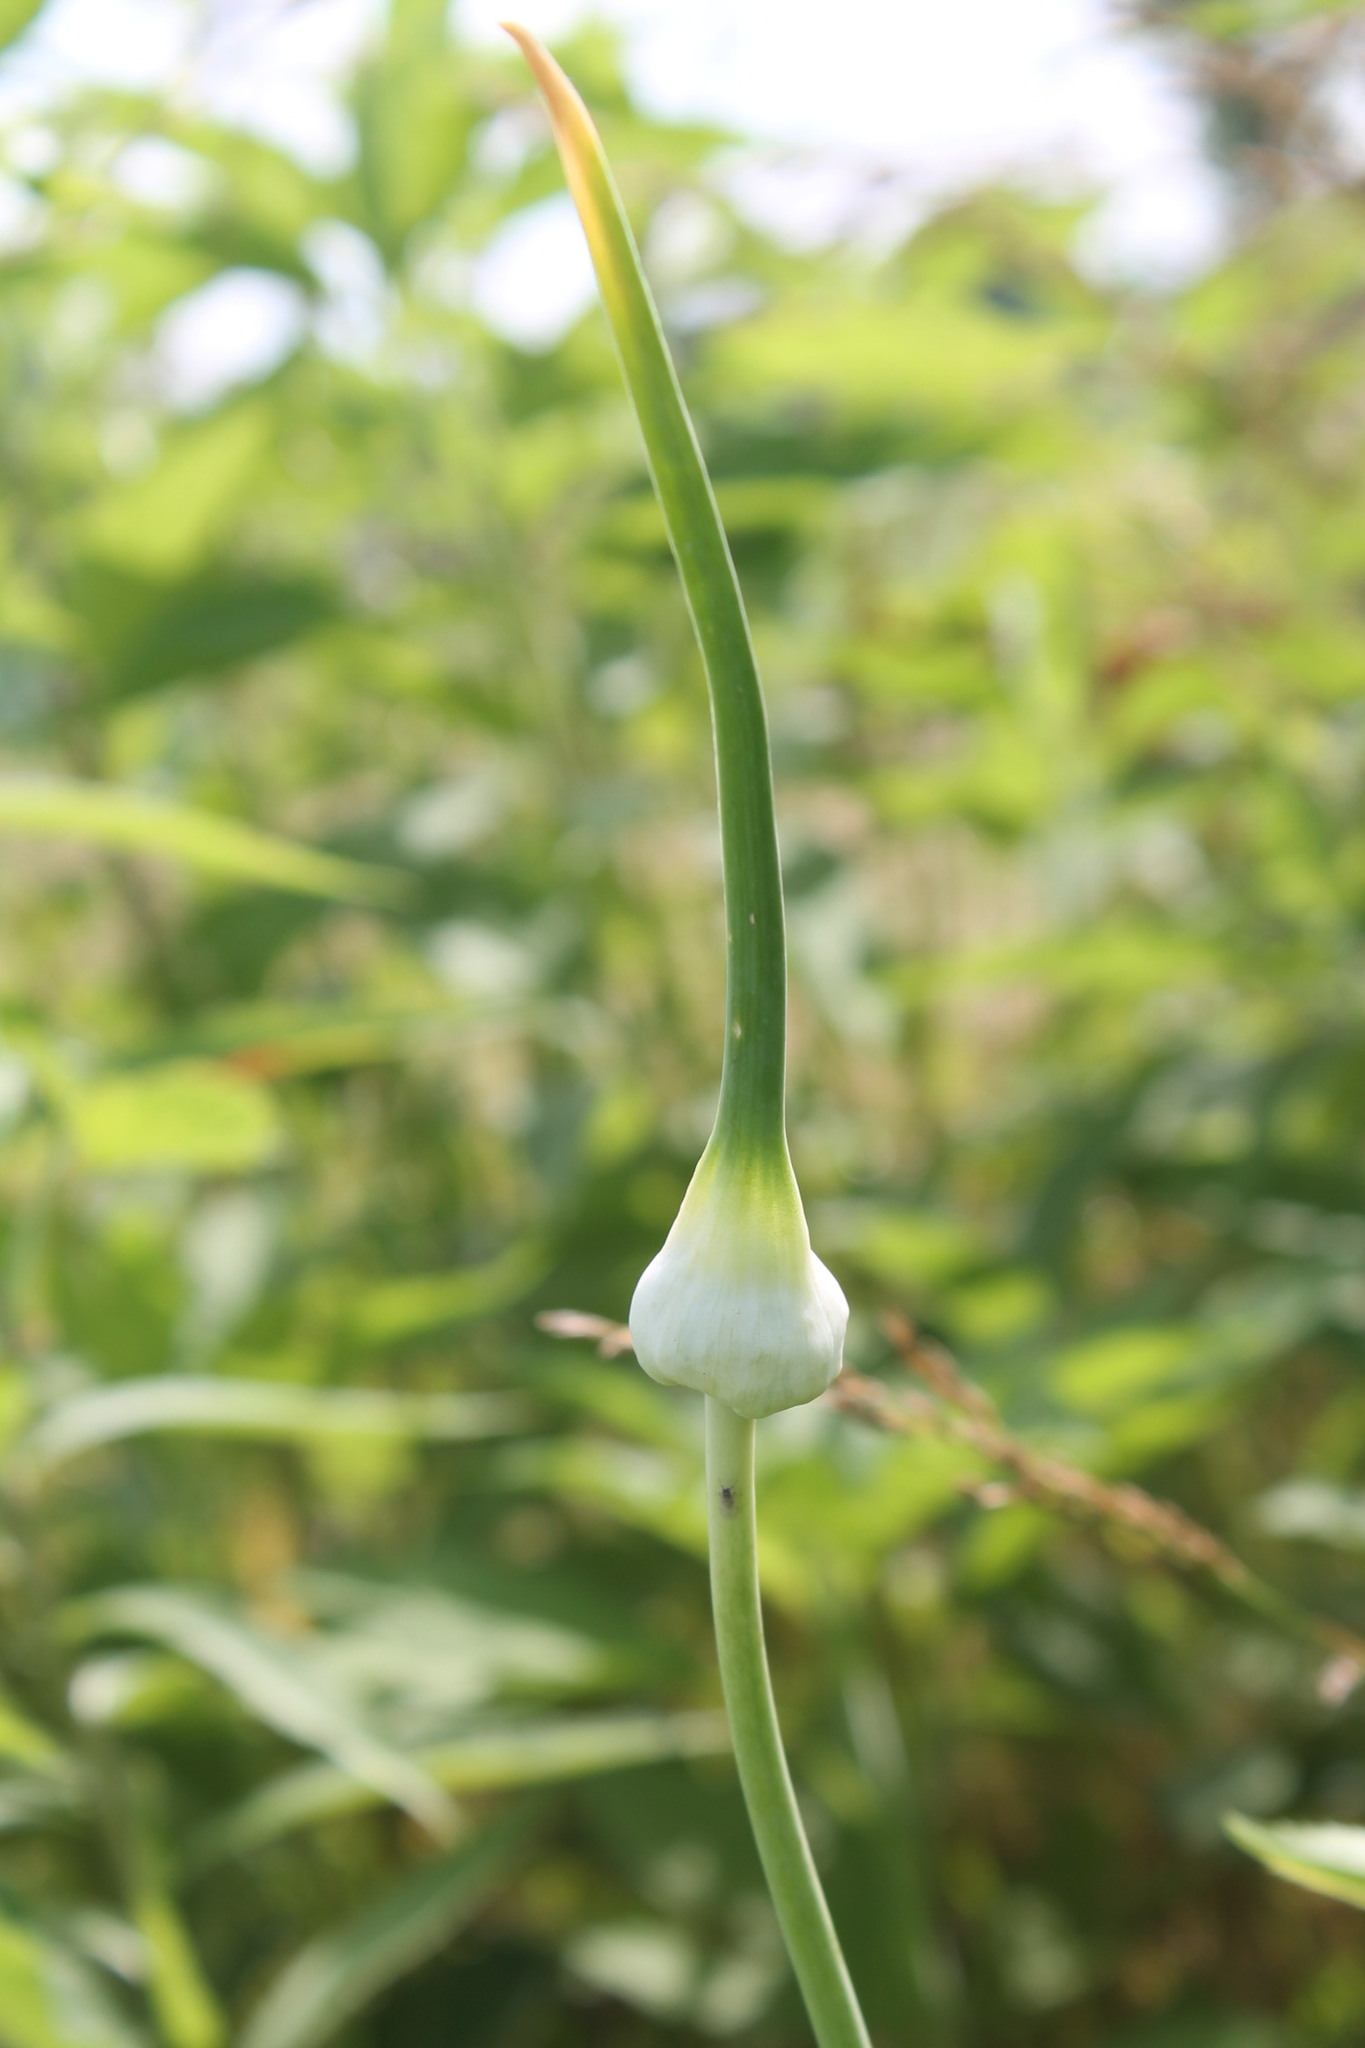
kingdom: Plantae
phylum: Tracheophyta
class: Liliopsida
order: Asparagales
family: Amaryllidaceae
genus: Allium
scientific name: Allium ampeloprasum
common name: Wild leek
